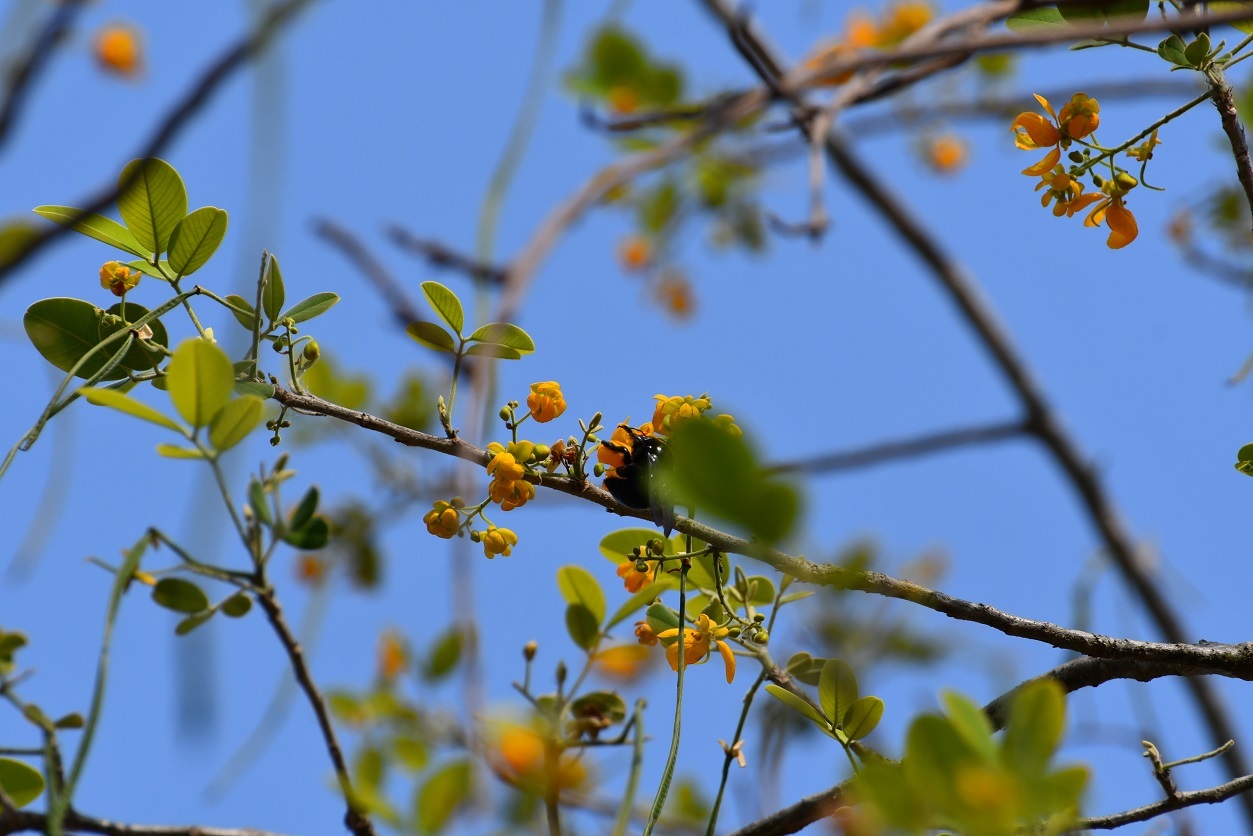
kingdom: Plantae
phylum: Tracheophyta
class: Magnoliopsida
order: Fabales
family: Fabaceae
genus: Senna
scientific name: Senna atomaria
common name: Flor de san jose
